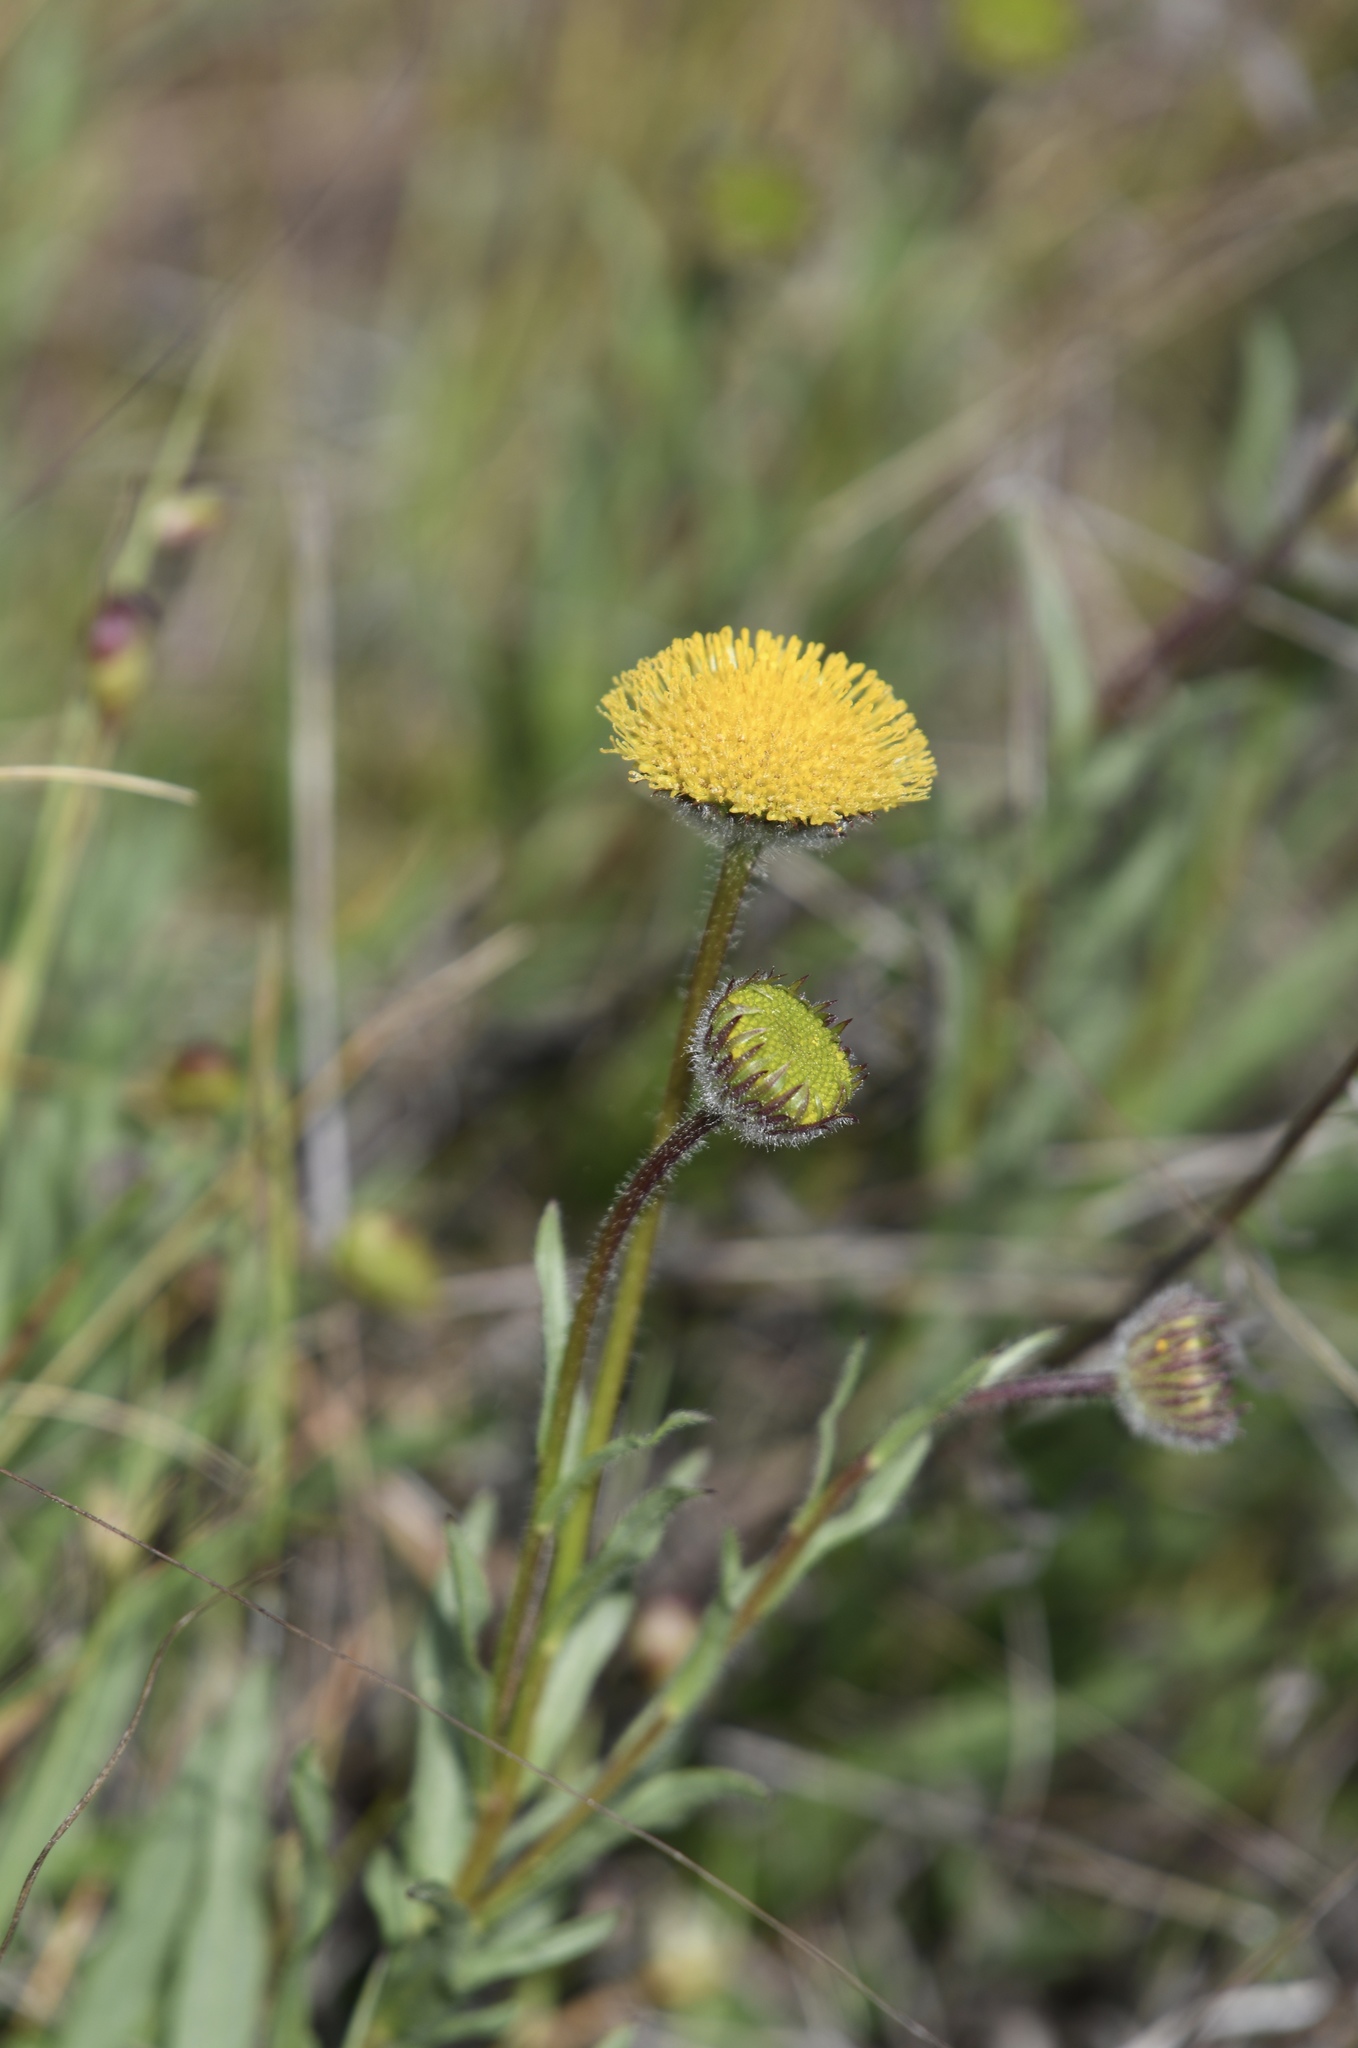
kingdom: Plantae
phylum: Tracheophyta
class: Magnoliopsida
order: Asterales
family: Asteraceae
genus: Erigeron
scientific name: Erigeron supplex
